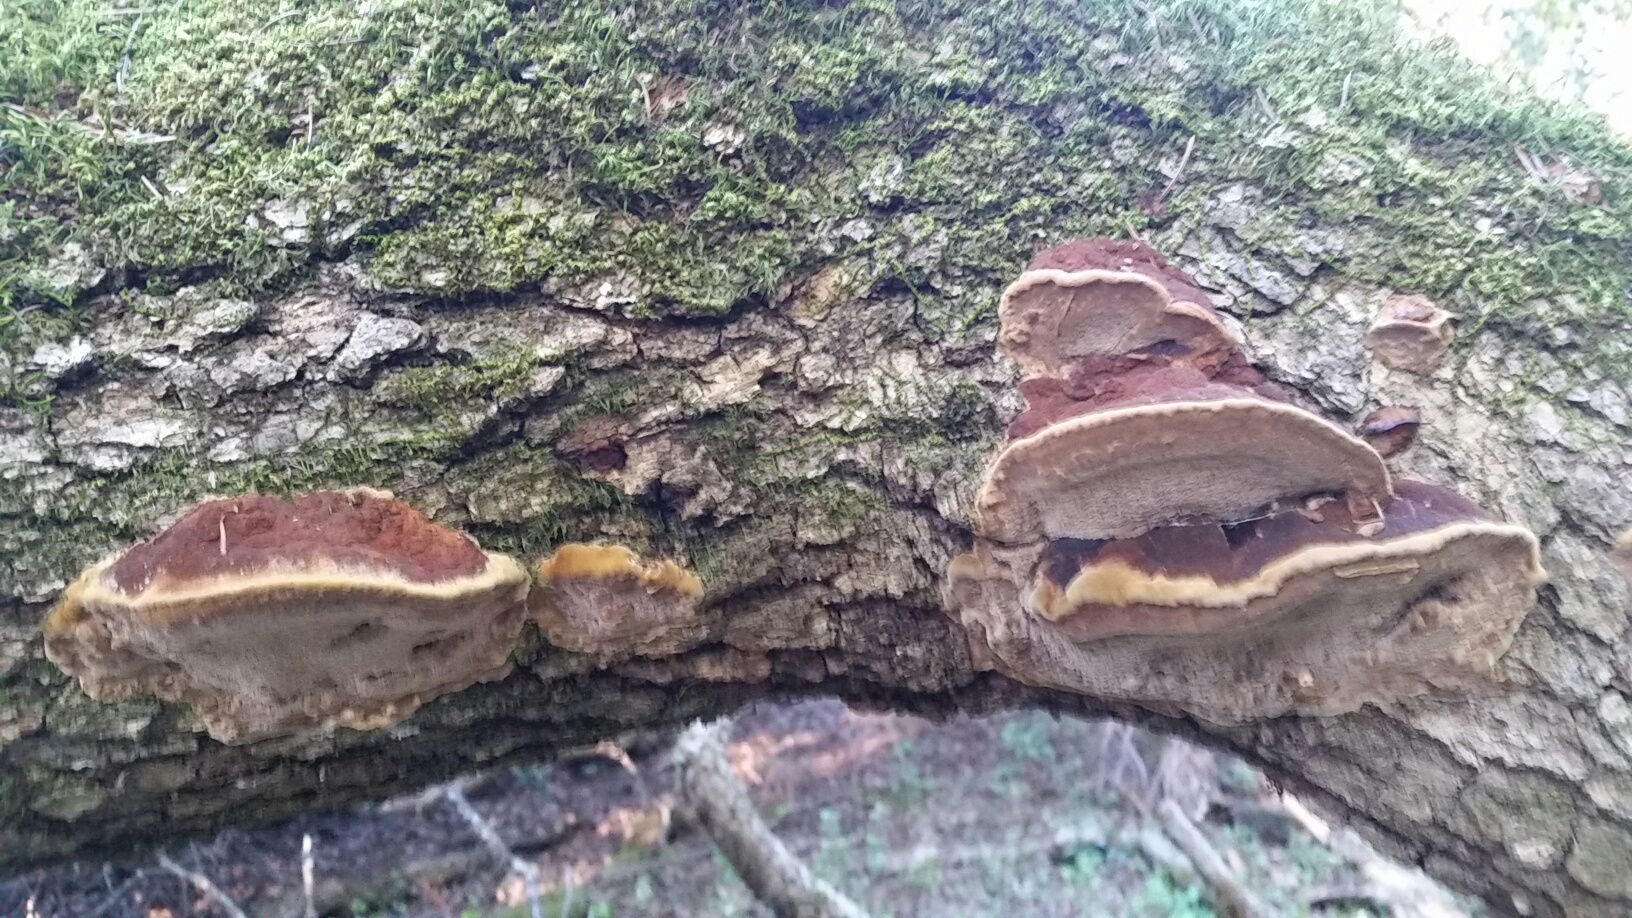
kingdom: Fungi
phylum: Basidiomycota
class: Agaricomycetes
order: Hymenochaetales
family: Hymenochaetaceae
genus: Phellinus
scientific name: Phellinus gilvus
